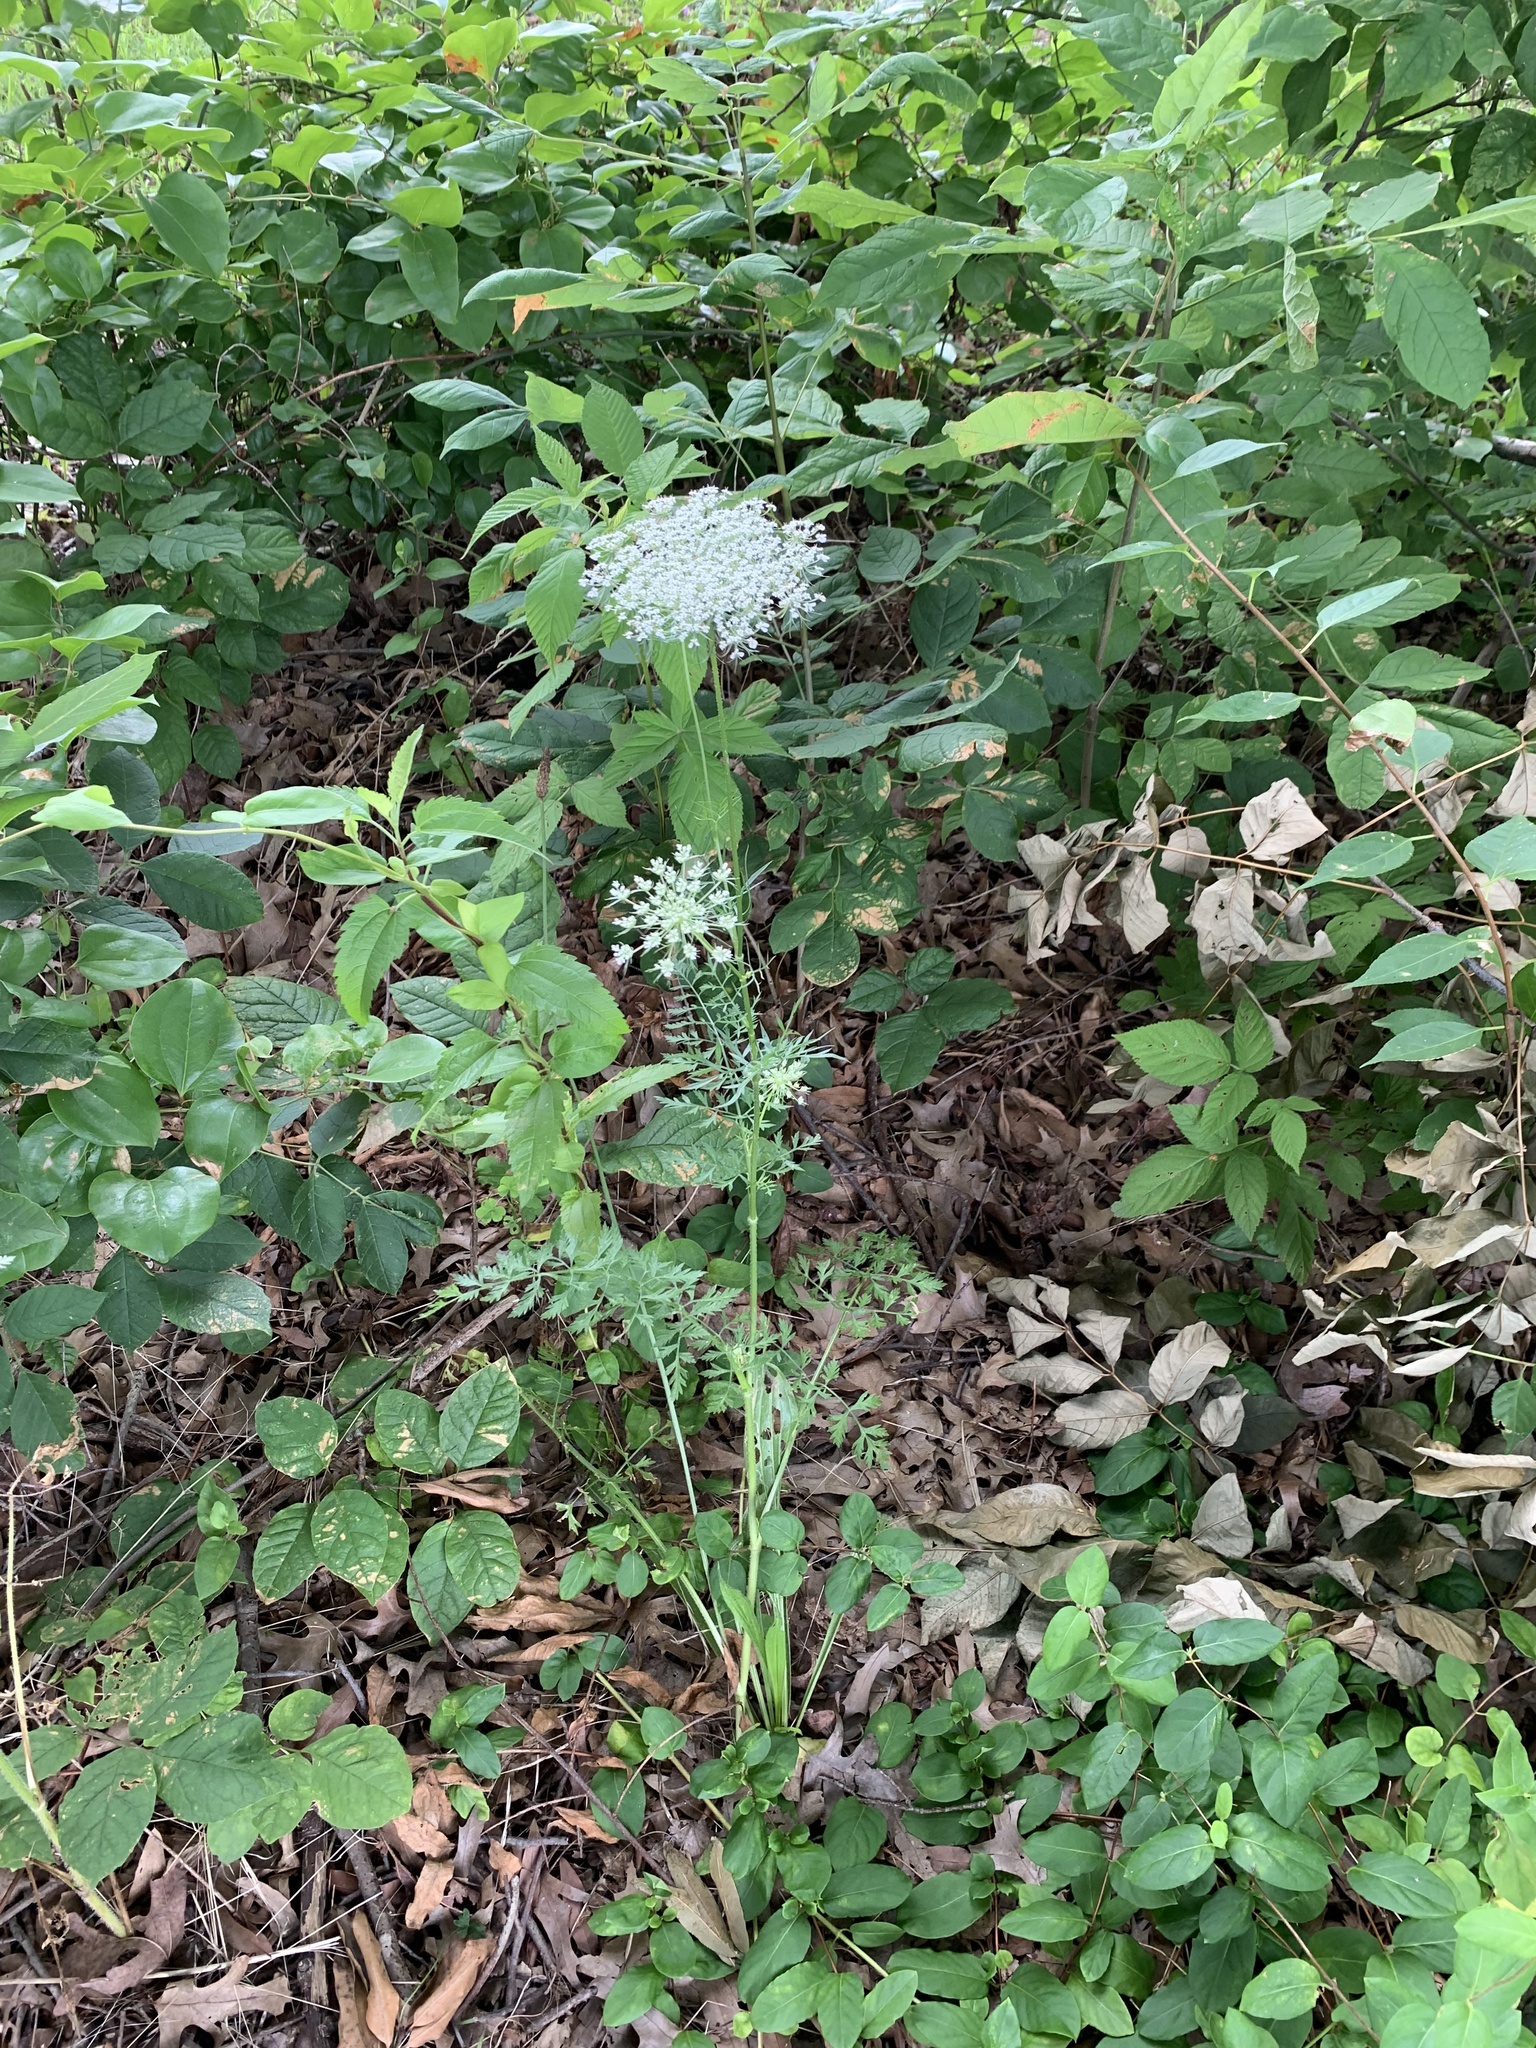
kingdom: Plantae
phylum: Tracheophyta
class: Magnoliopsida
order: Apiales
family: Apiaceae
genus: Daucus
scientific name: Daucus carota
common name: Wild carrot
